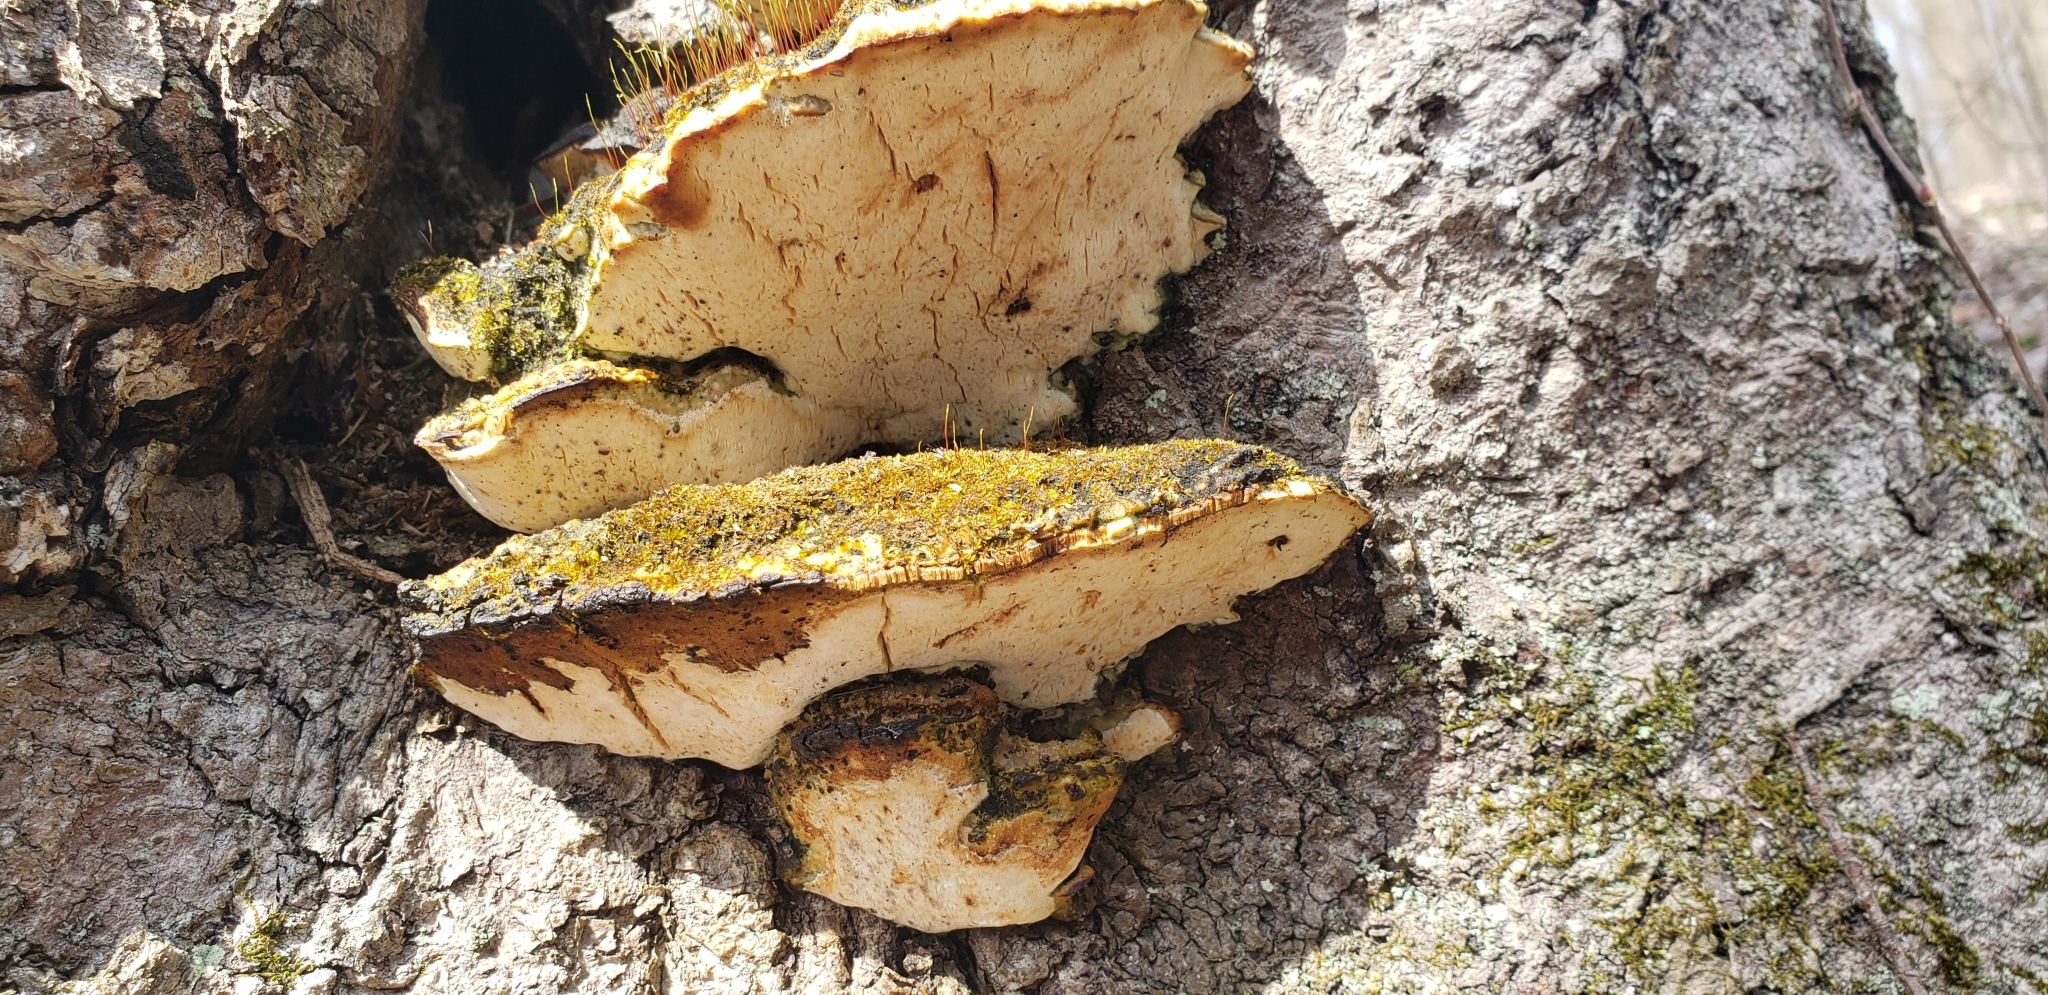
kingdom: Fungi
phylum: Basidiomycota
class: Agaricomycetes
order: Hymenochaetales
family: Oxyporaceae
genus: Oxyporus
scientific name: Oxyporus populinus
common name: Poplar bracket
